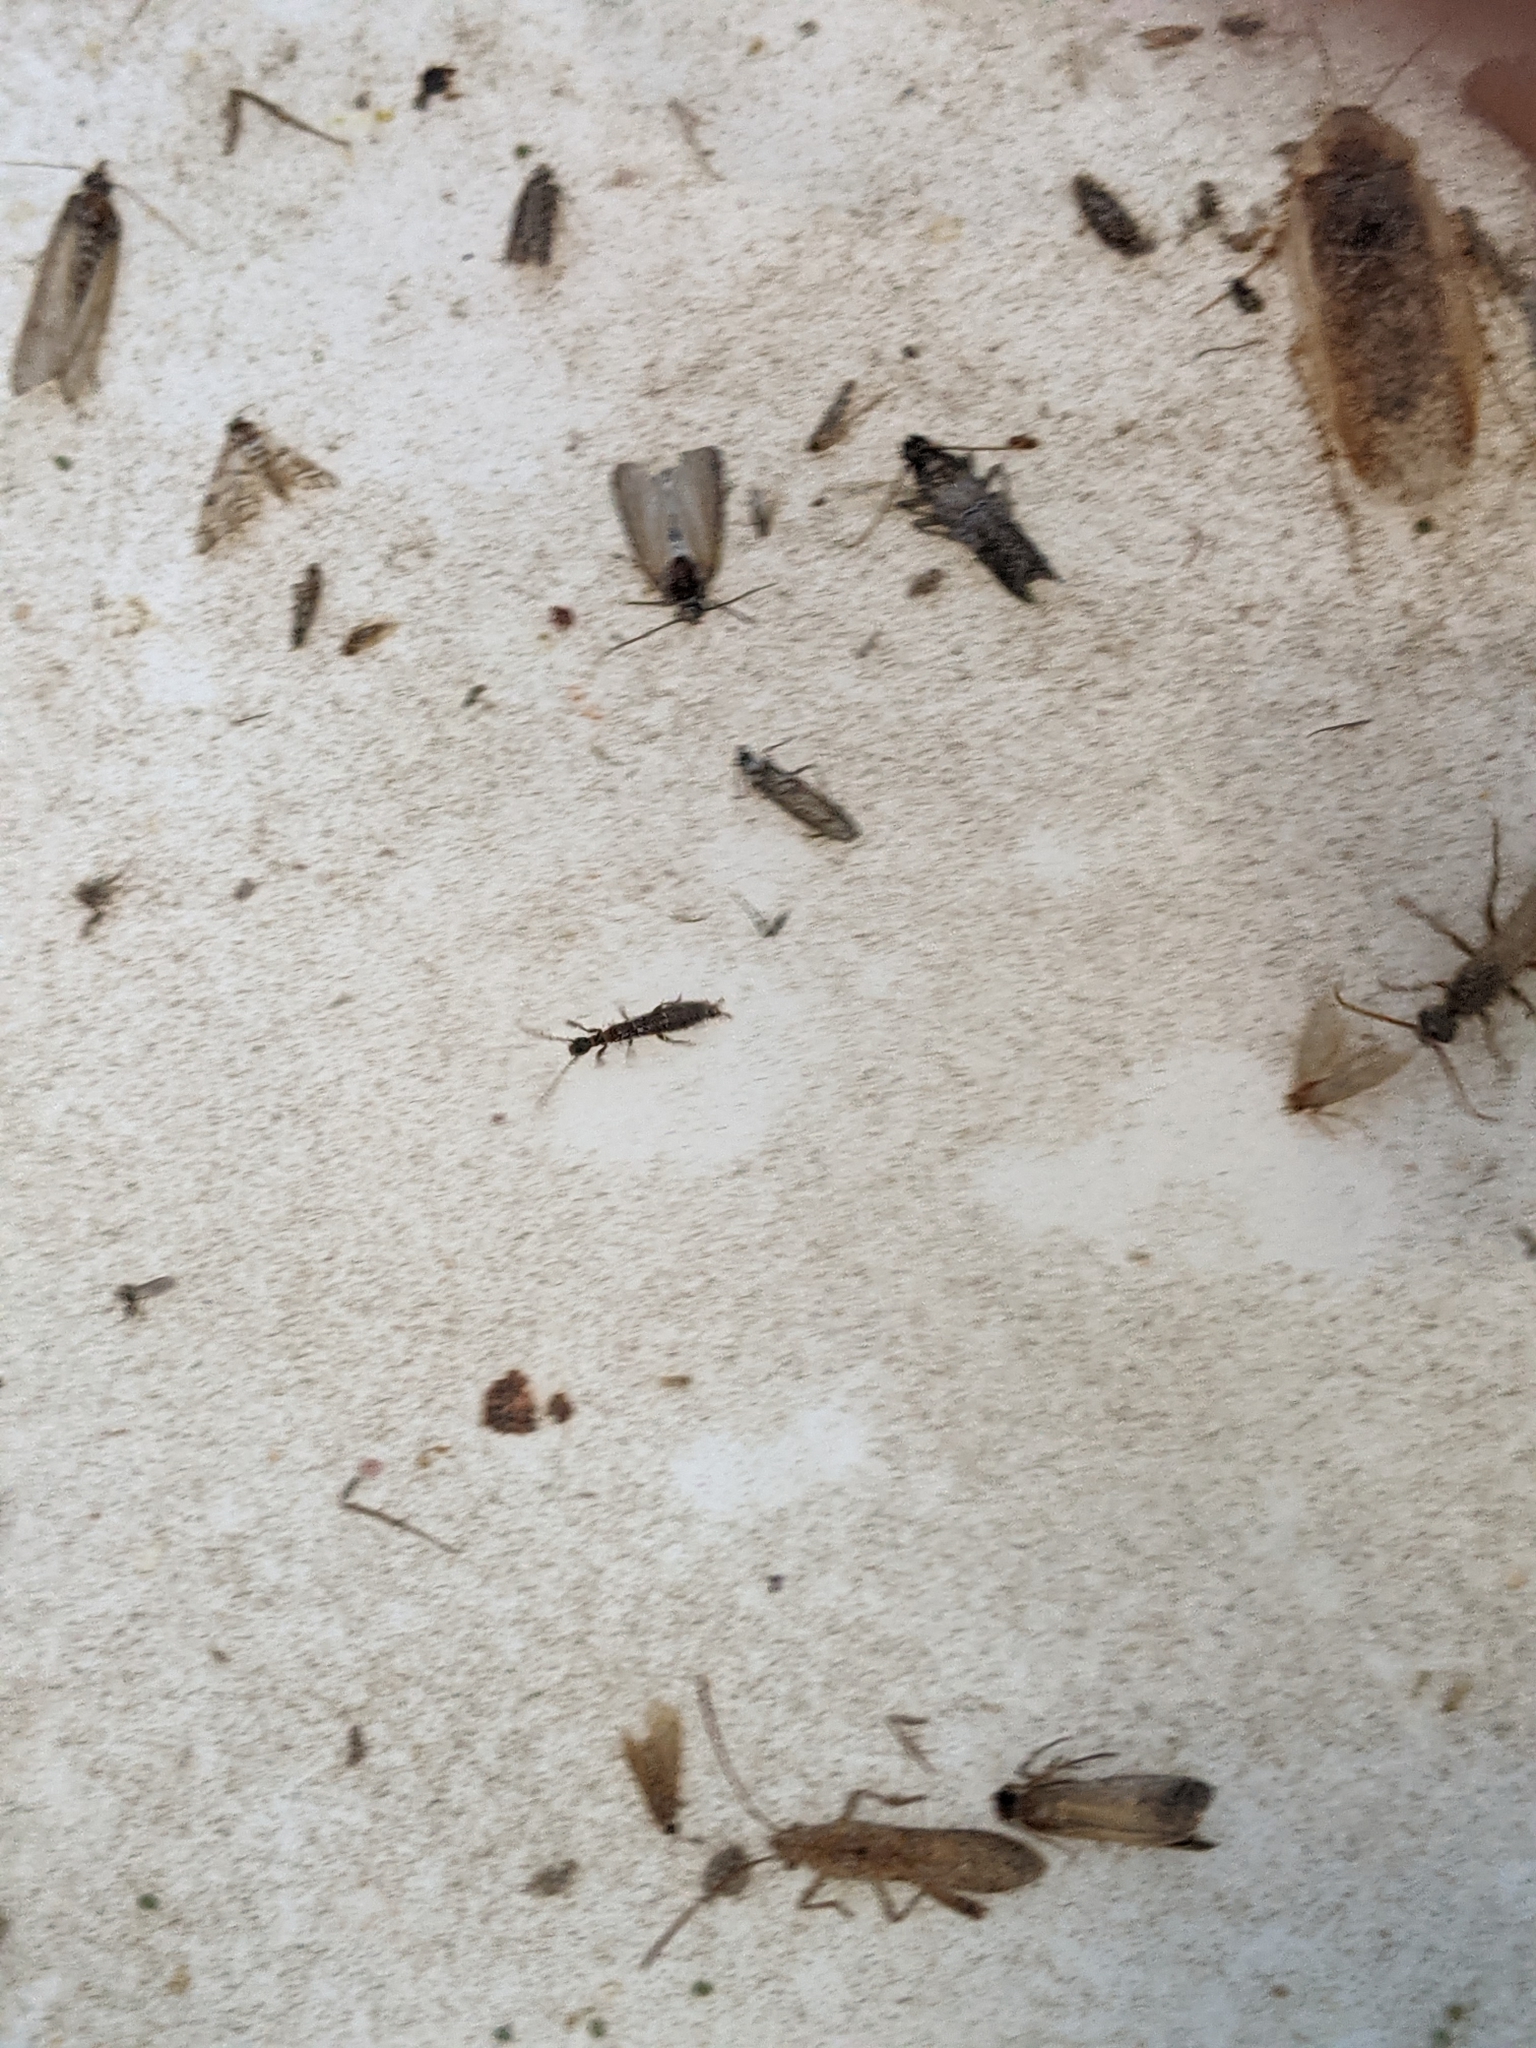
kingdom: Animalia
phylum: Arthropoda
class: Insecta
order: Embioptera
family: Oligotomidae
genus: Oligotoma
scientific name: Oligotoma nigra
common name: Black webspinner
